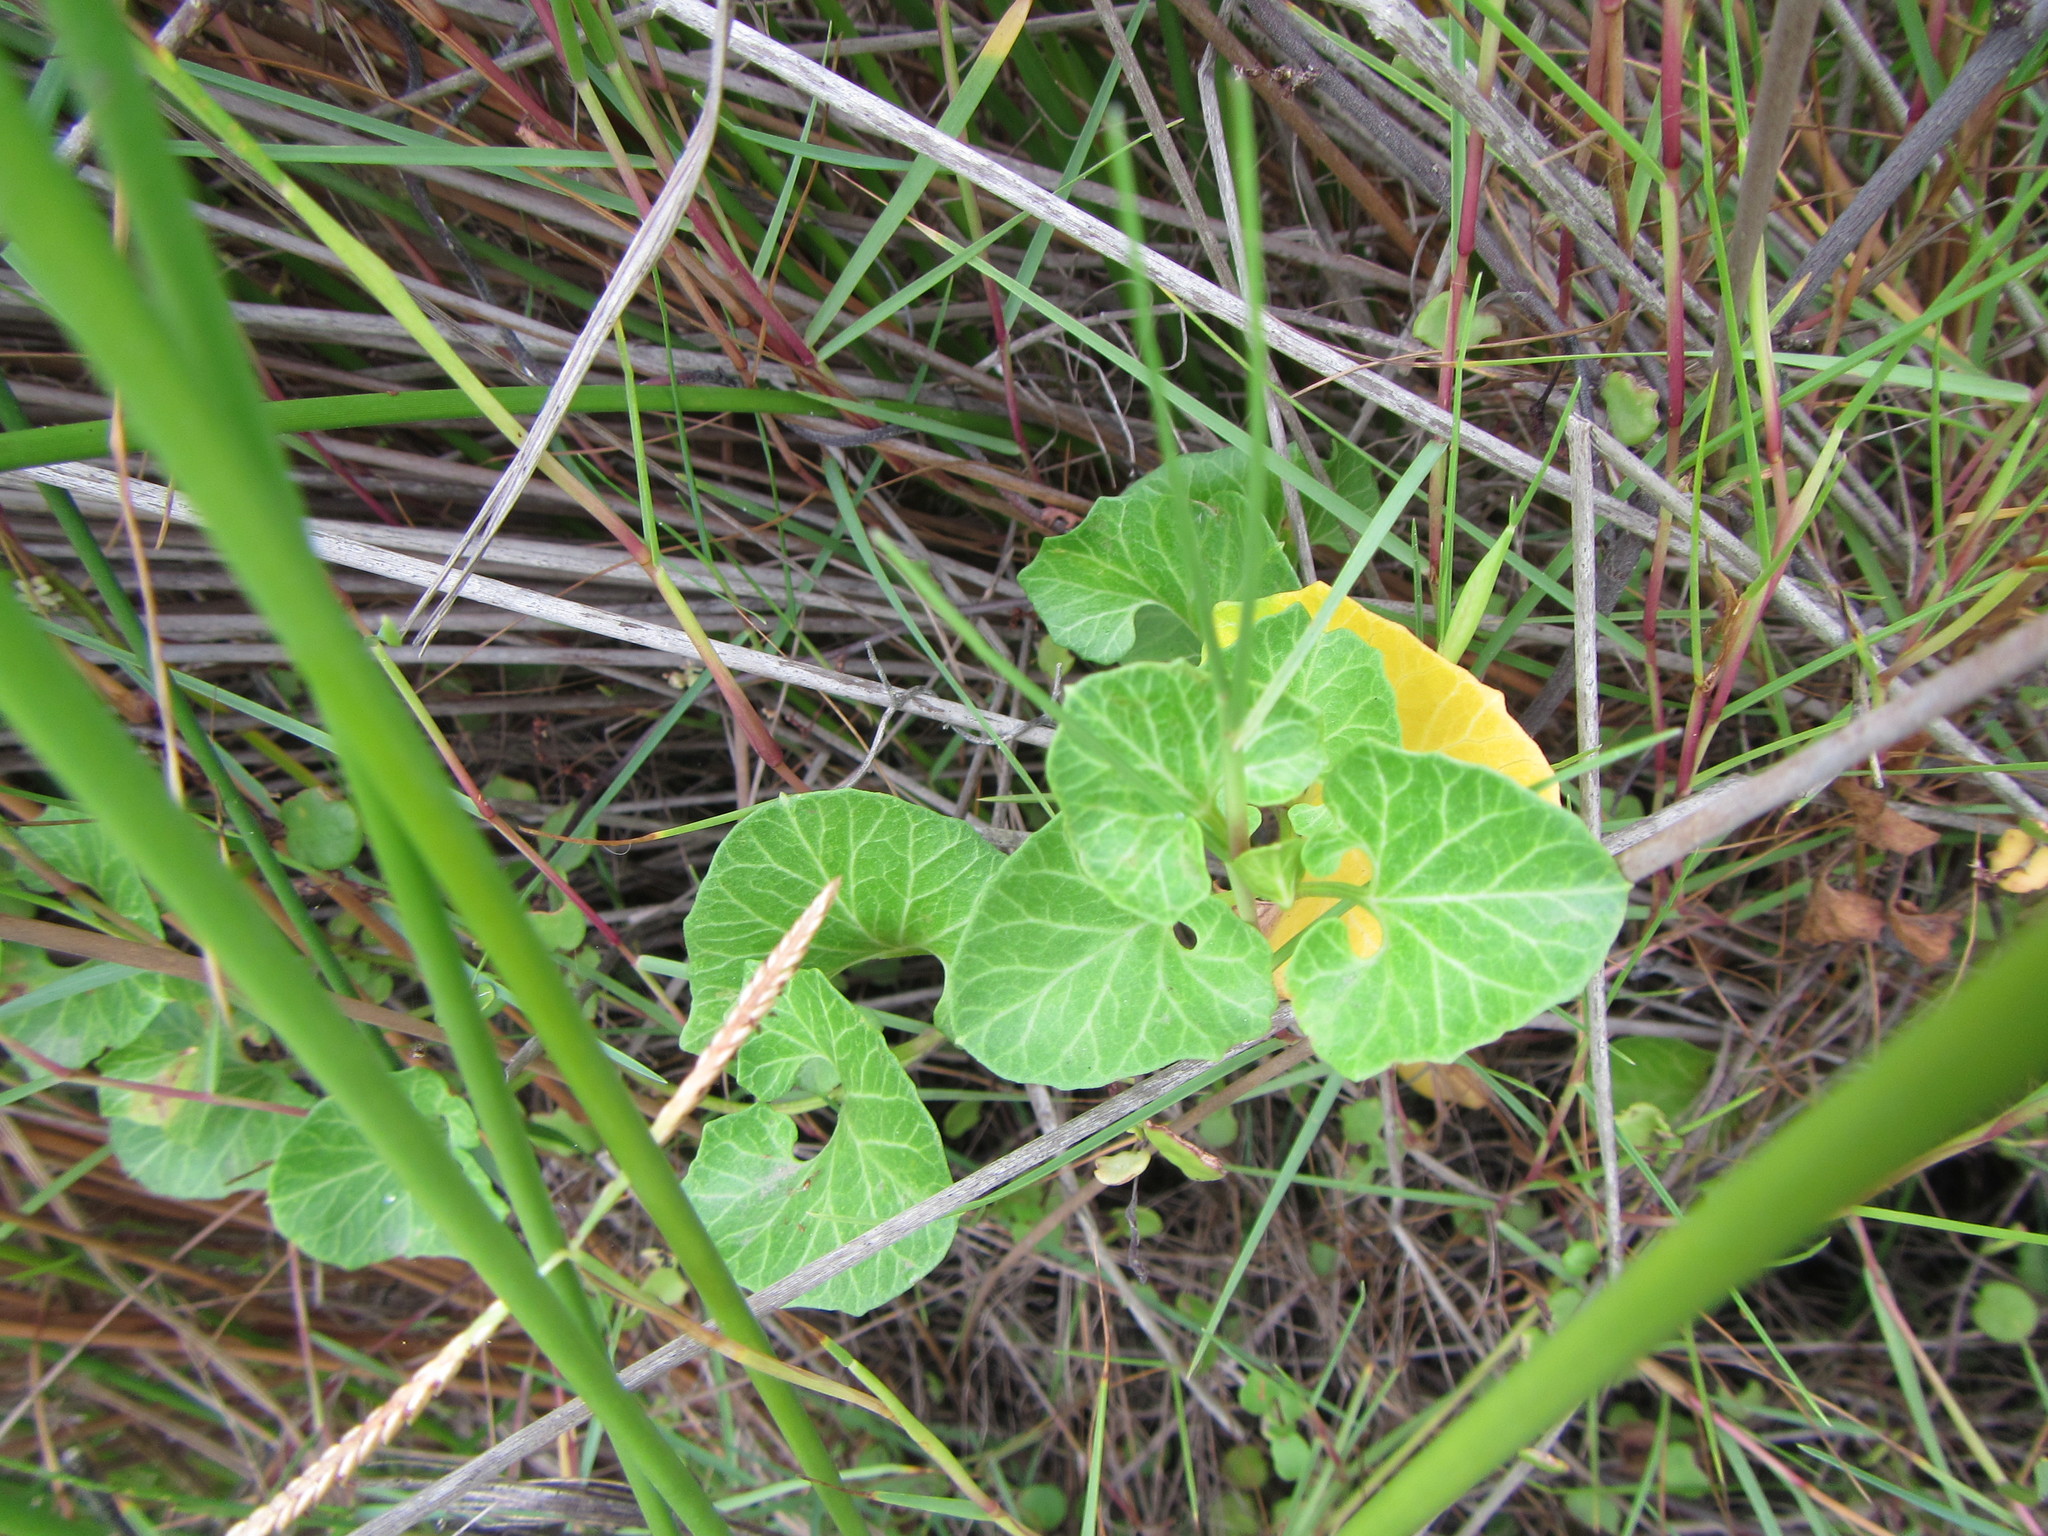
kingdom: Plantae
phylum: Tracheophyta
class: Magnoliopsida
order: Solanales
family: Convolvulaceae
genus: Calystegia
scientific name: Calystegia soldanella
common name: Sea bindweed
